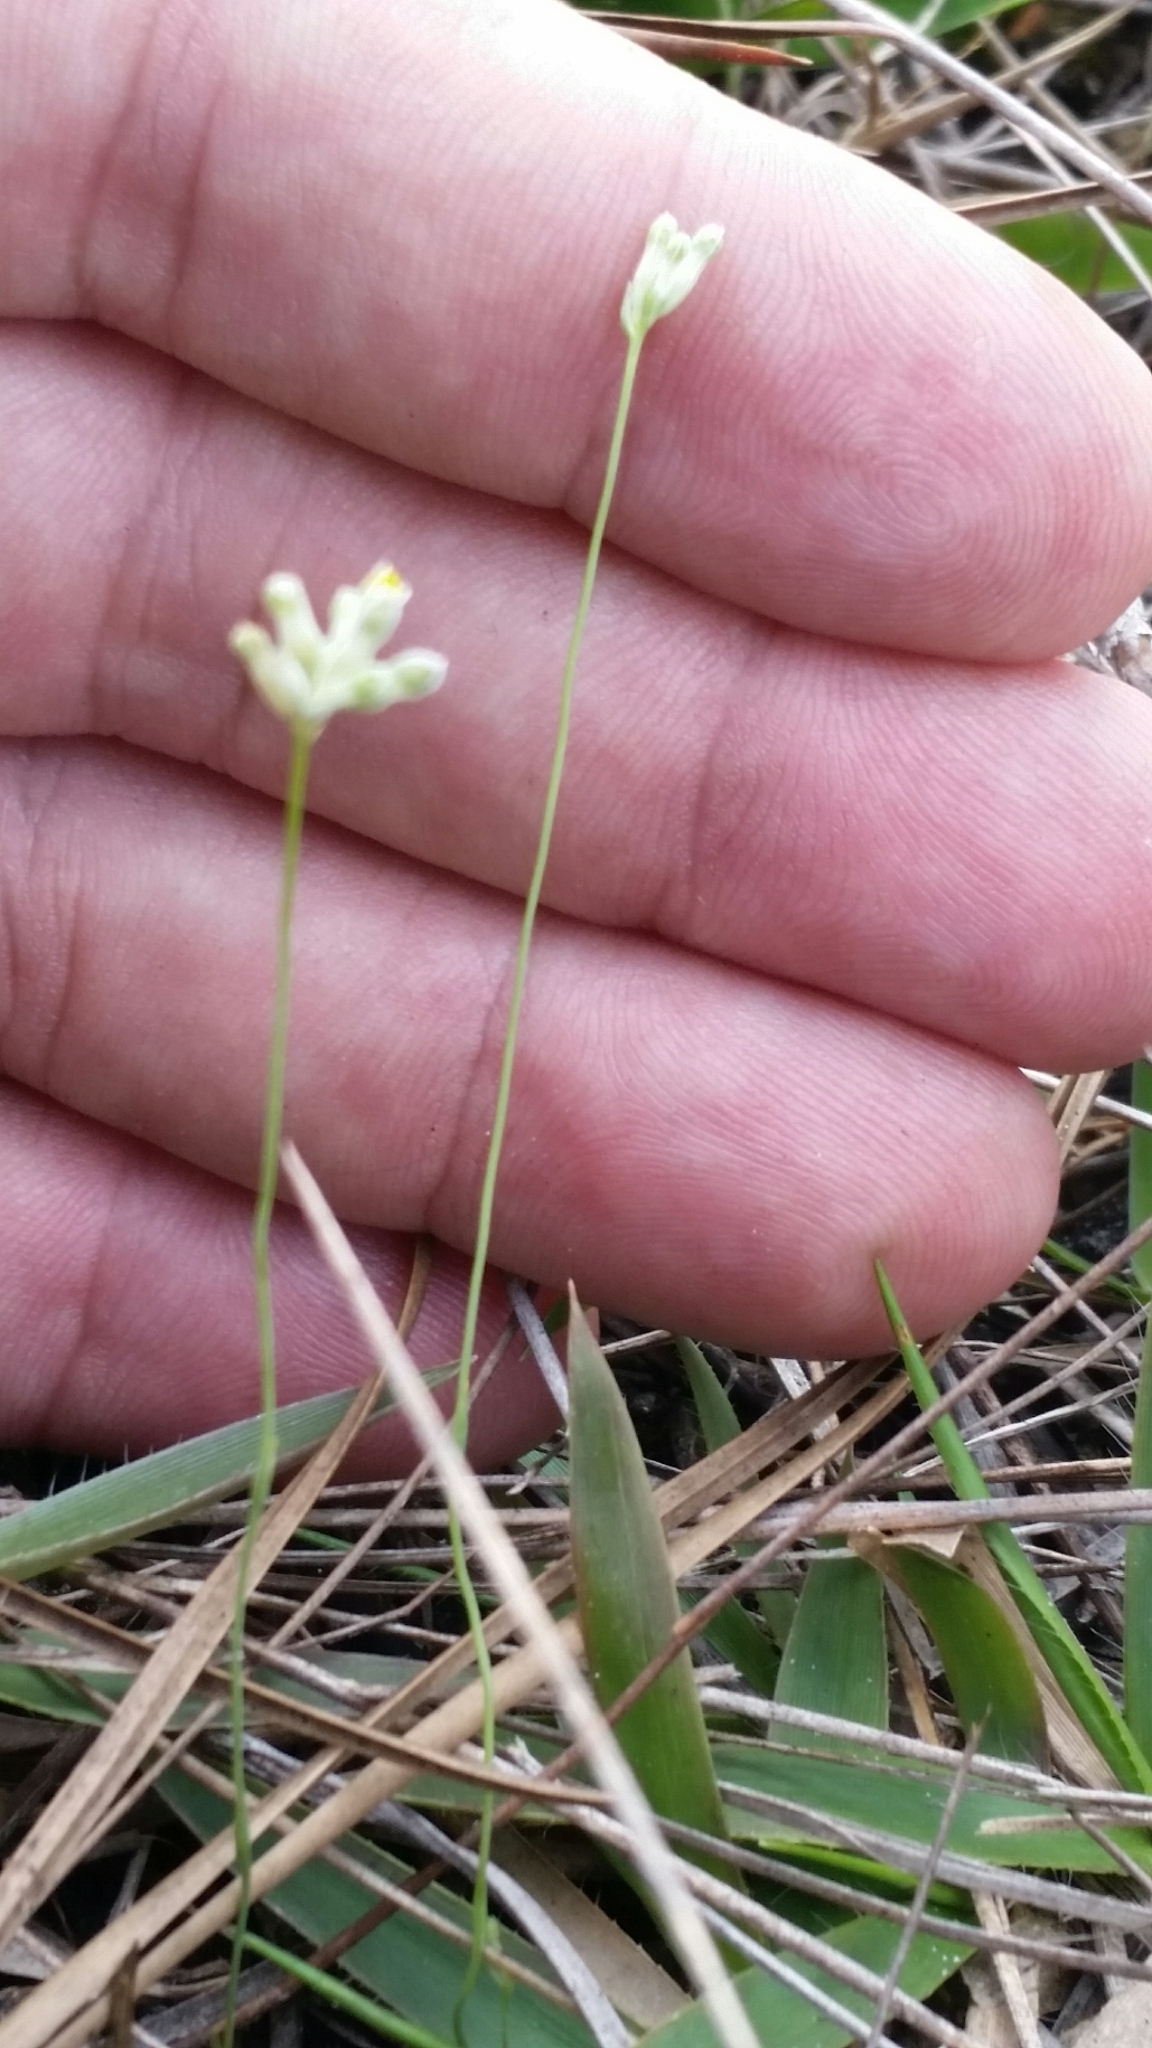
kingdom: Plantae
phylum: Tracheophyta
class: Liliopsida
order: Dioscoreales
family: Burmanniaceae
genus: Burmannia
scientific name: Burmannia capitata
